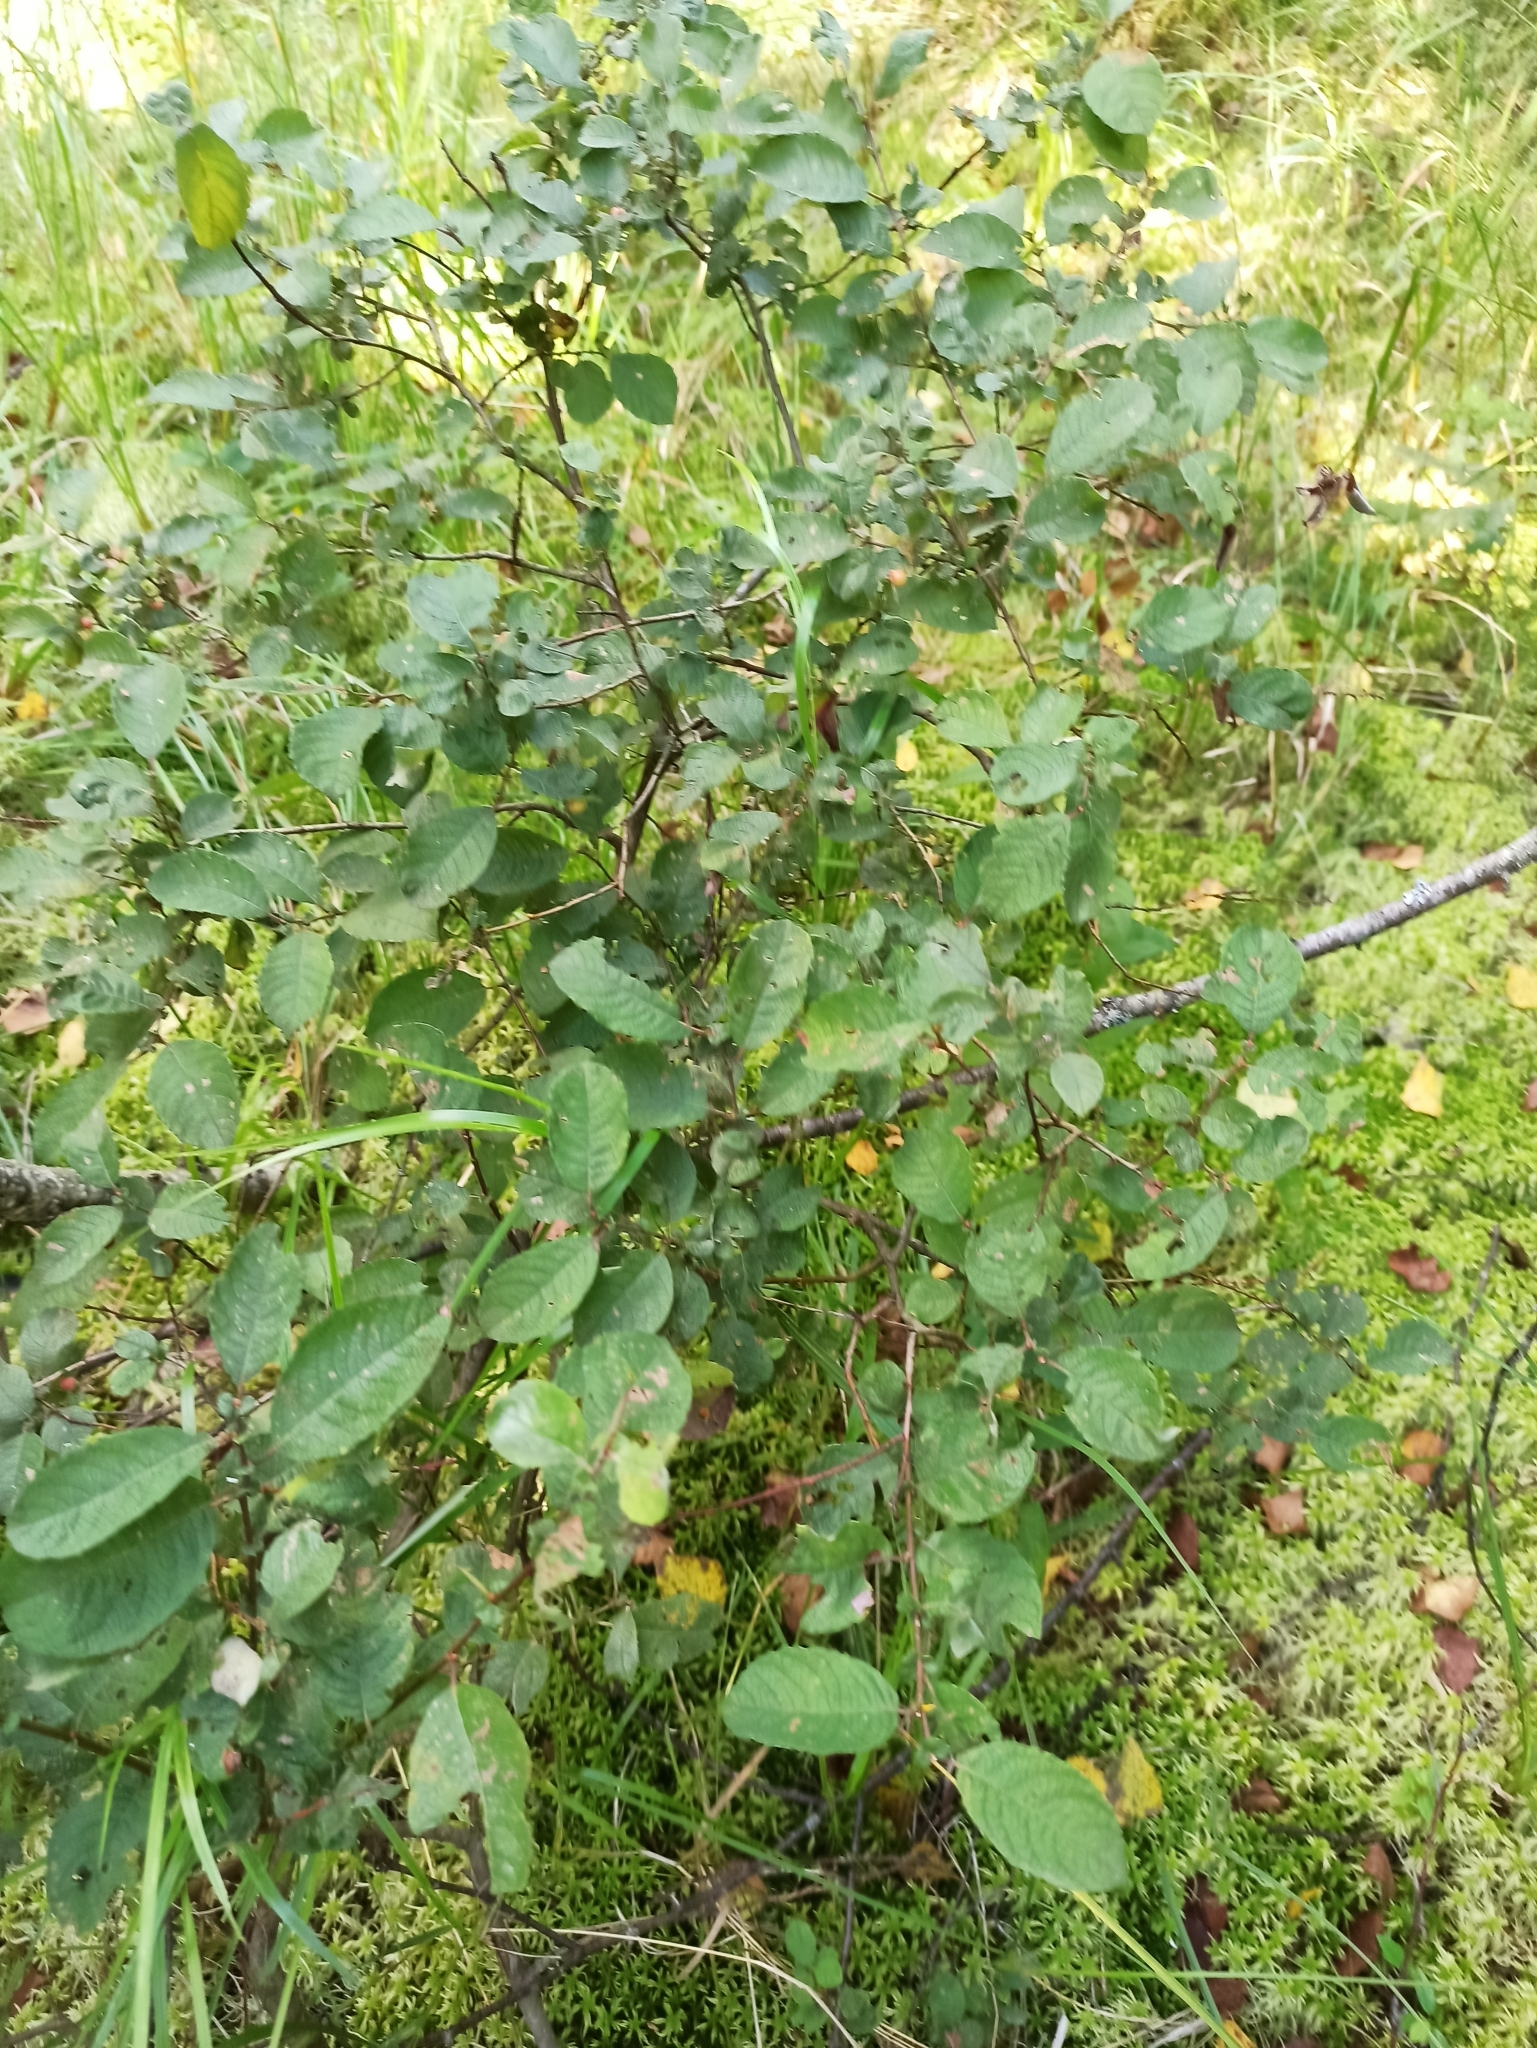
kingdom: Plantae
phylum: Tracheophyta
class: Magnoliopsida
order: Malpighiales
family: Salicaceae
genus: Salix
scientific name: Salix aurita
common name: Eared willow
